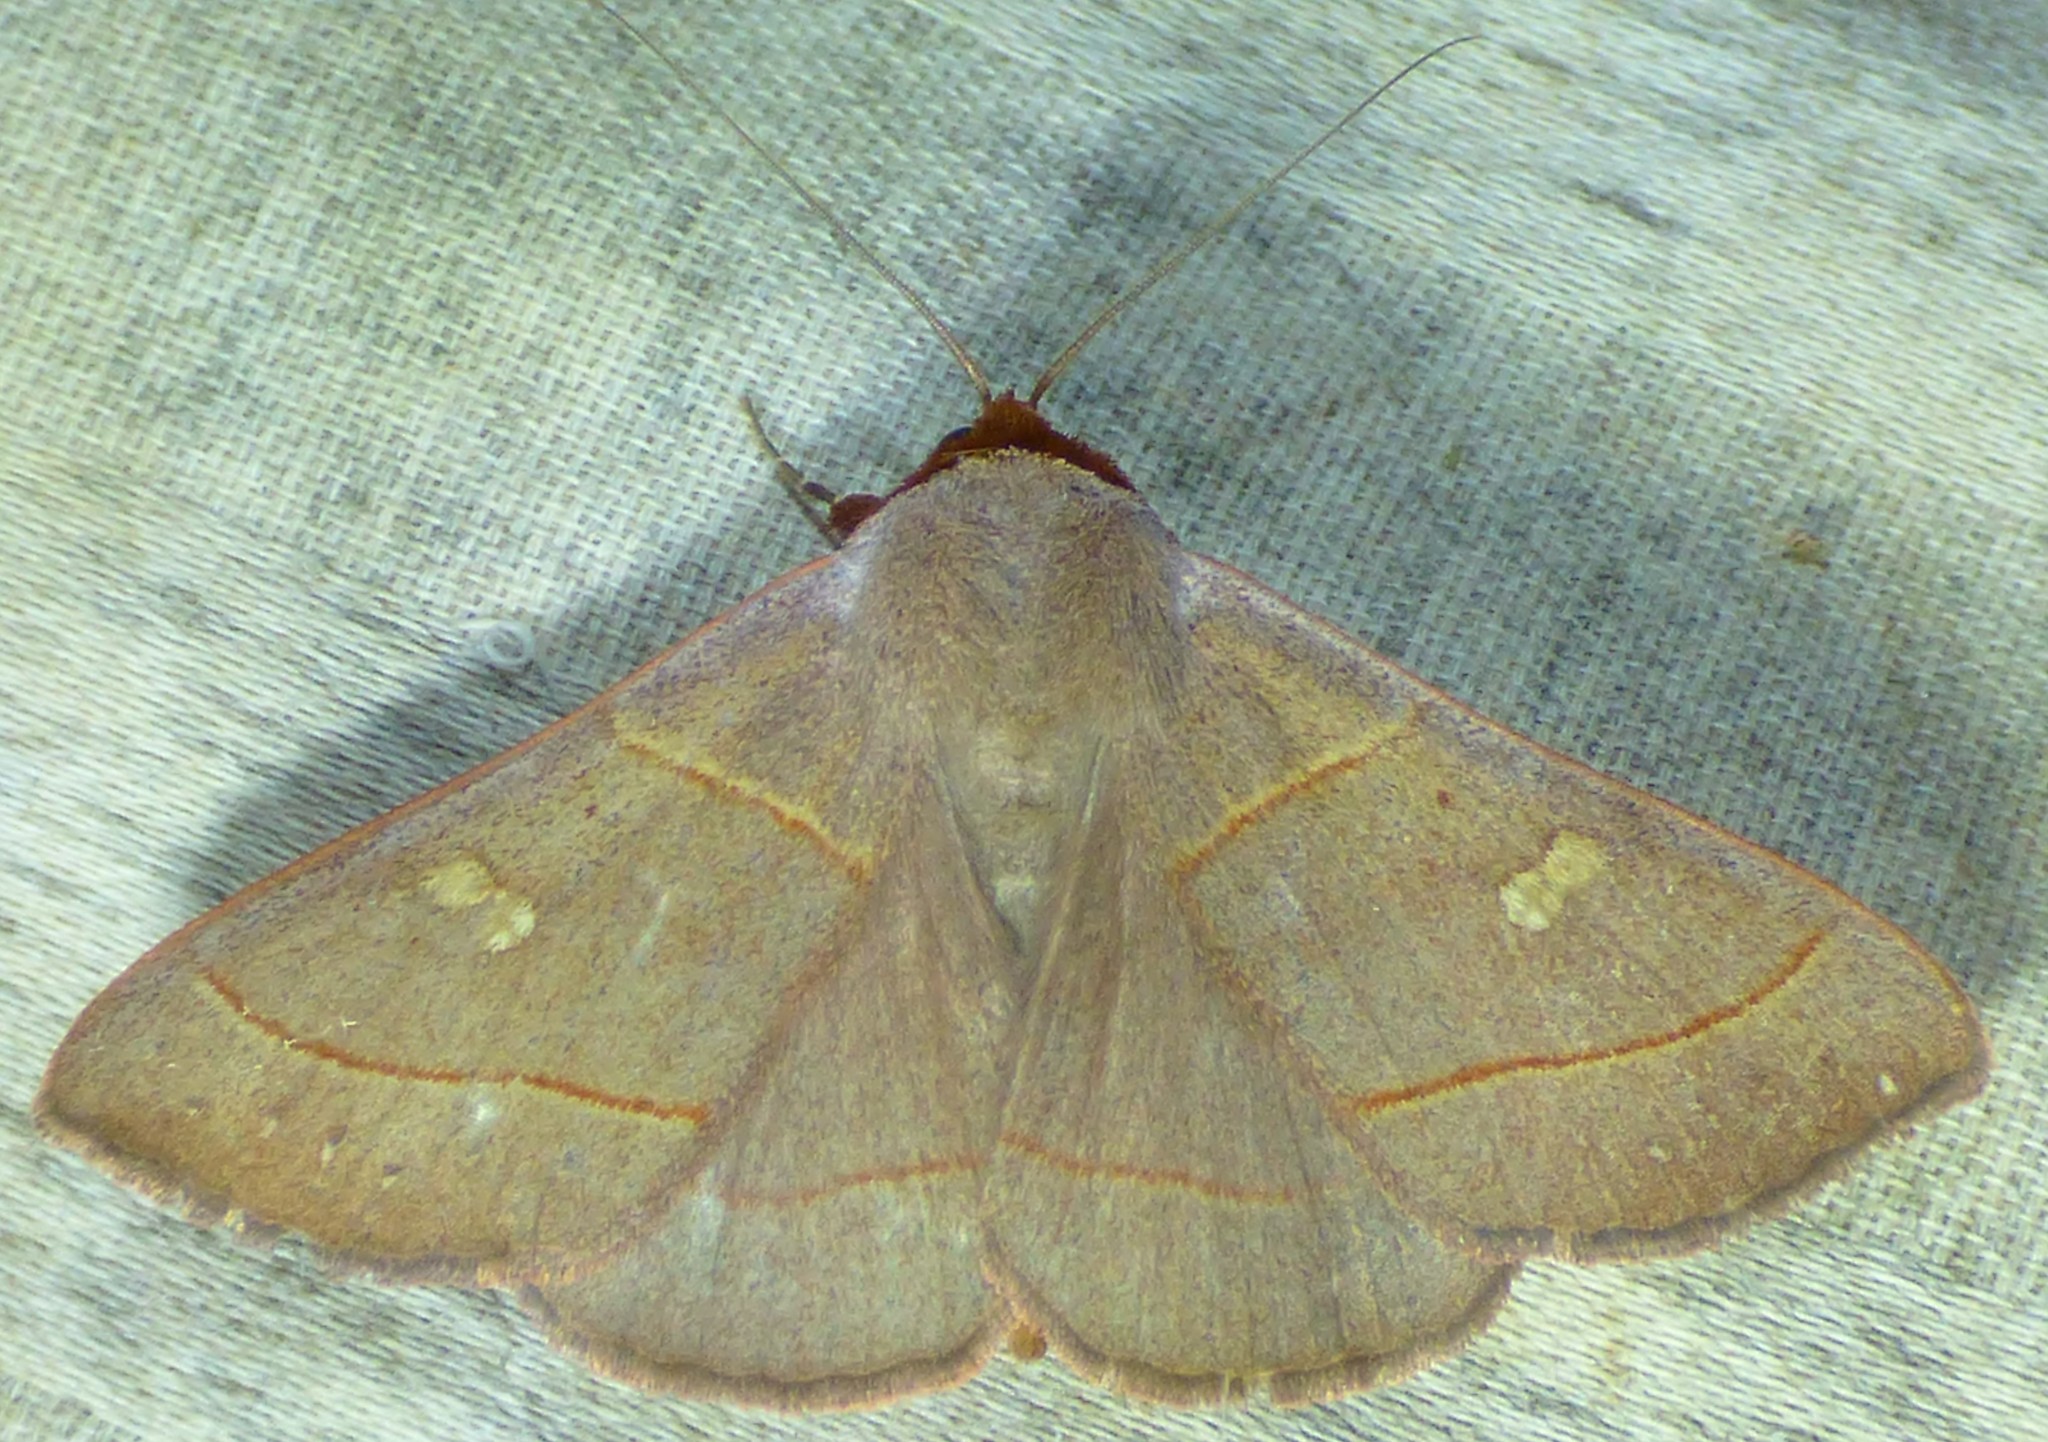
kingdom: Animalia
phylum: Arthropoda
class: Insecta
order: Lepidoptera
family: Erebidae
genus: Panopoda
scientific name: Panopoda rufimargo
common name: Red-lined panopoda moth
